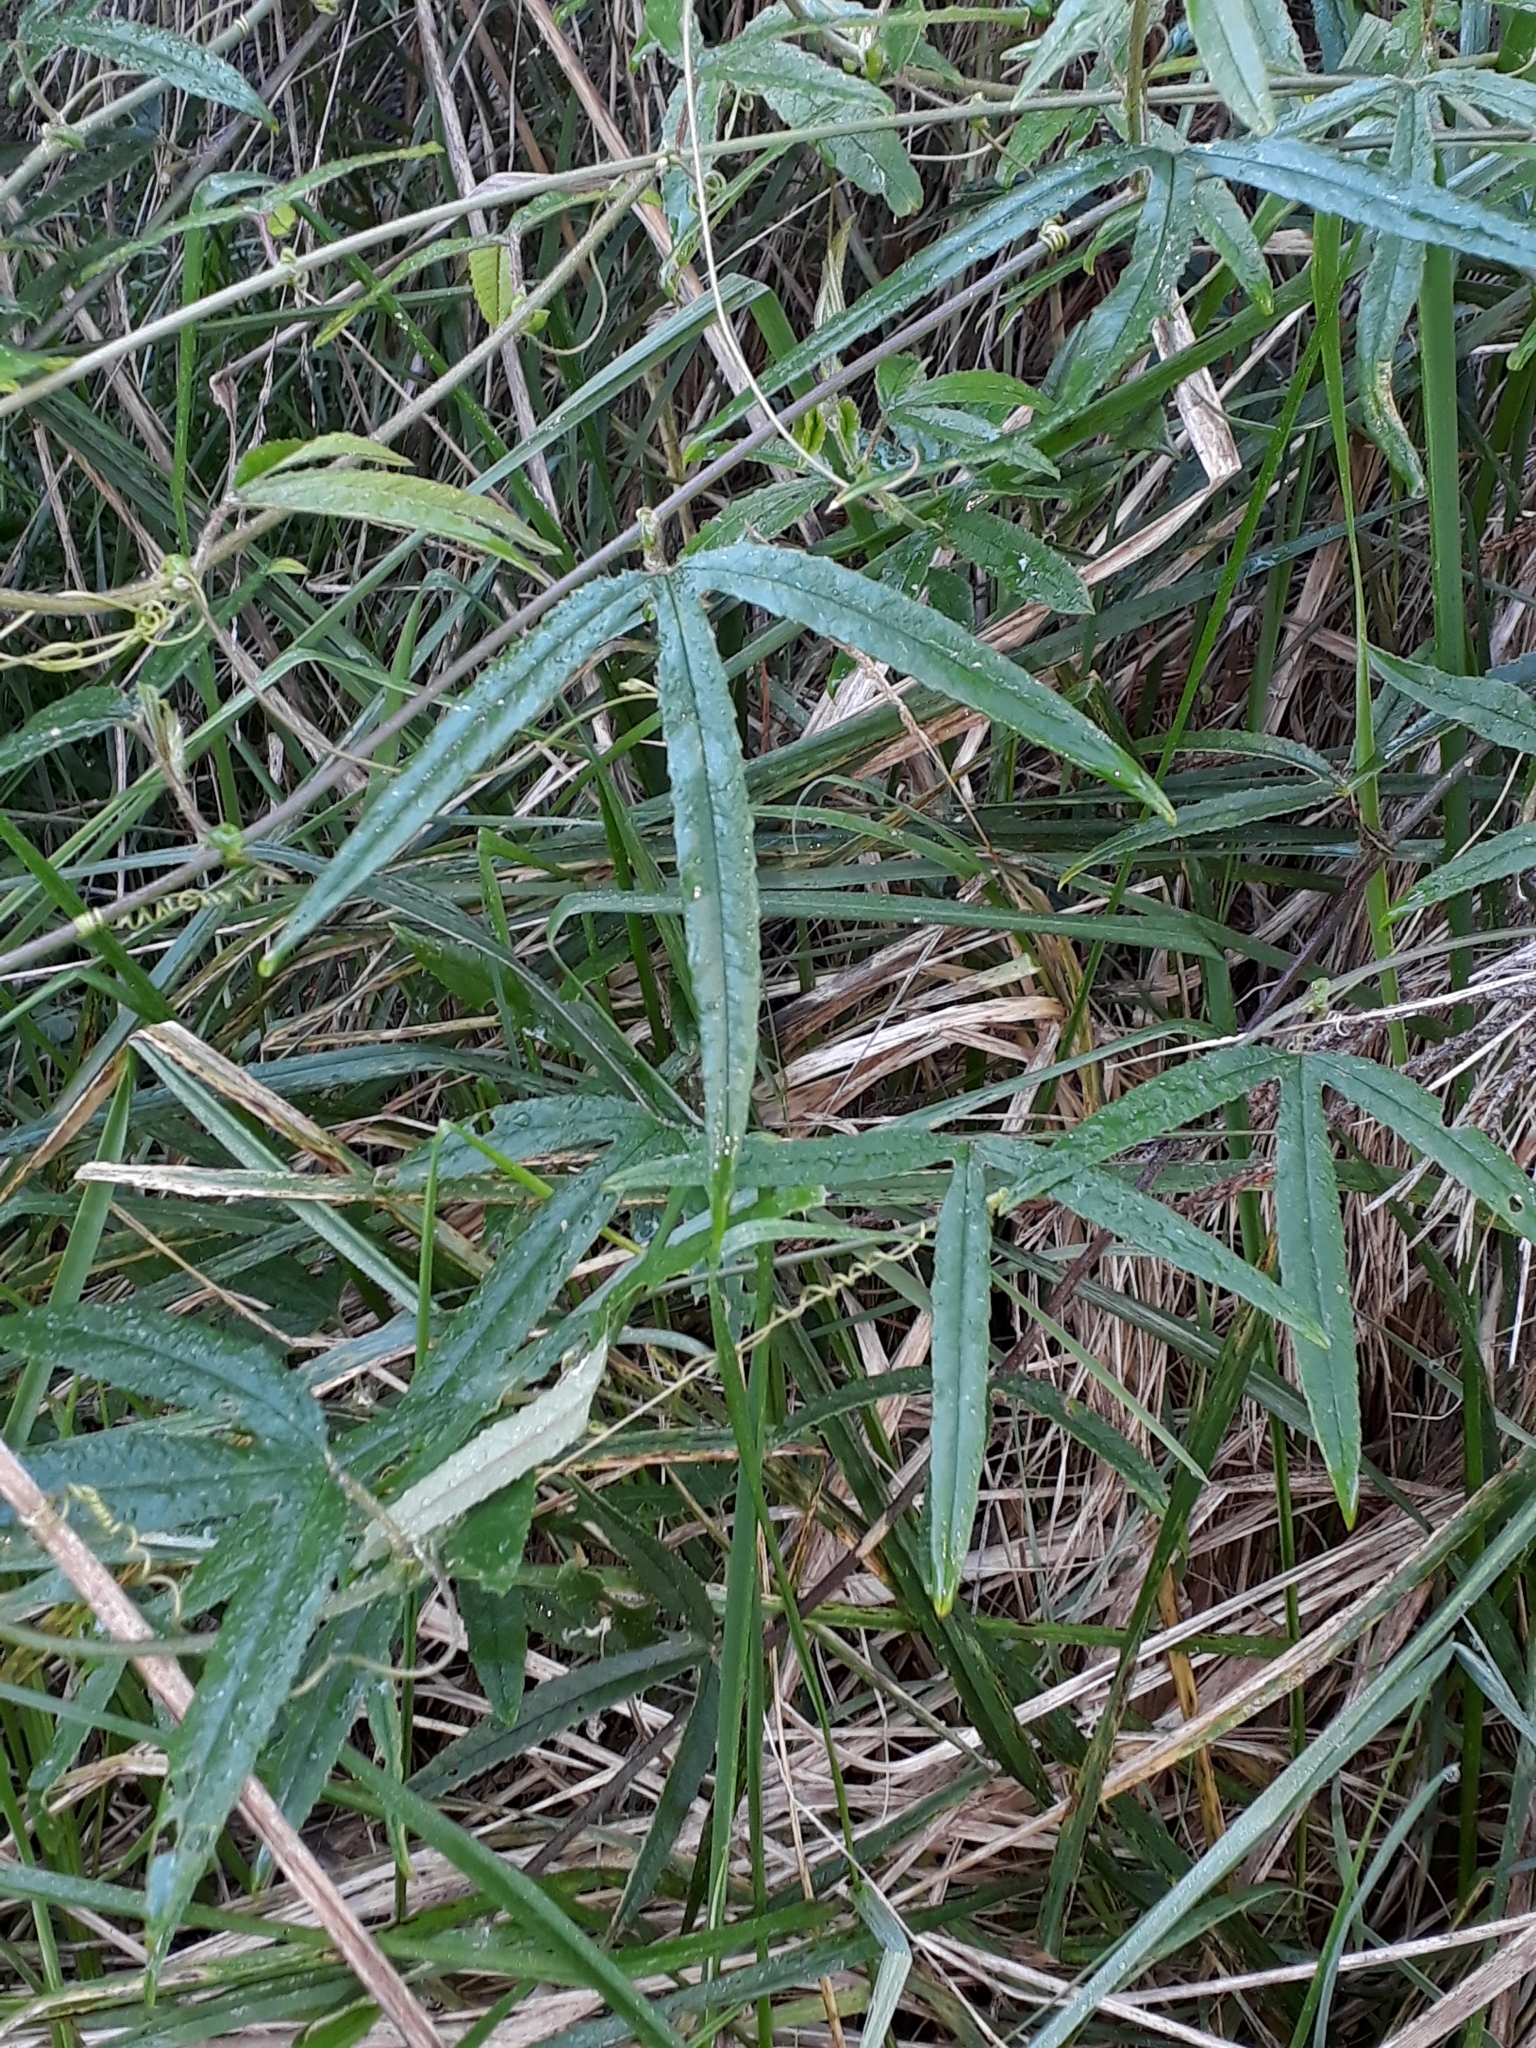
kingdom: Plantae
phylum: Tracheophyta
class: Magnoliopsida
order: Malpighiales
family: Passifloraceae
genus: Passiflora
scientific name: Passiflora tripartita
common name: Banana poka
